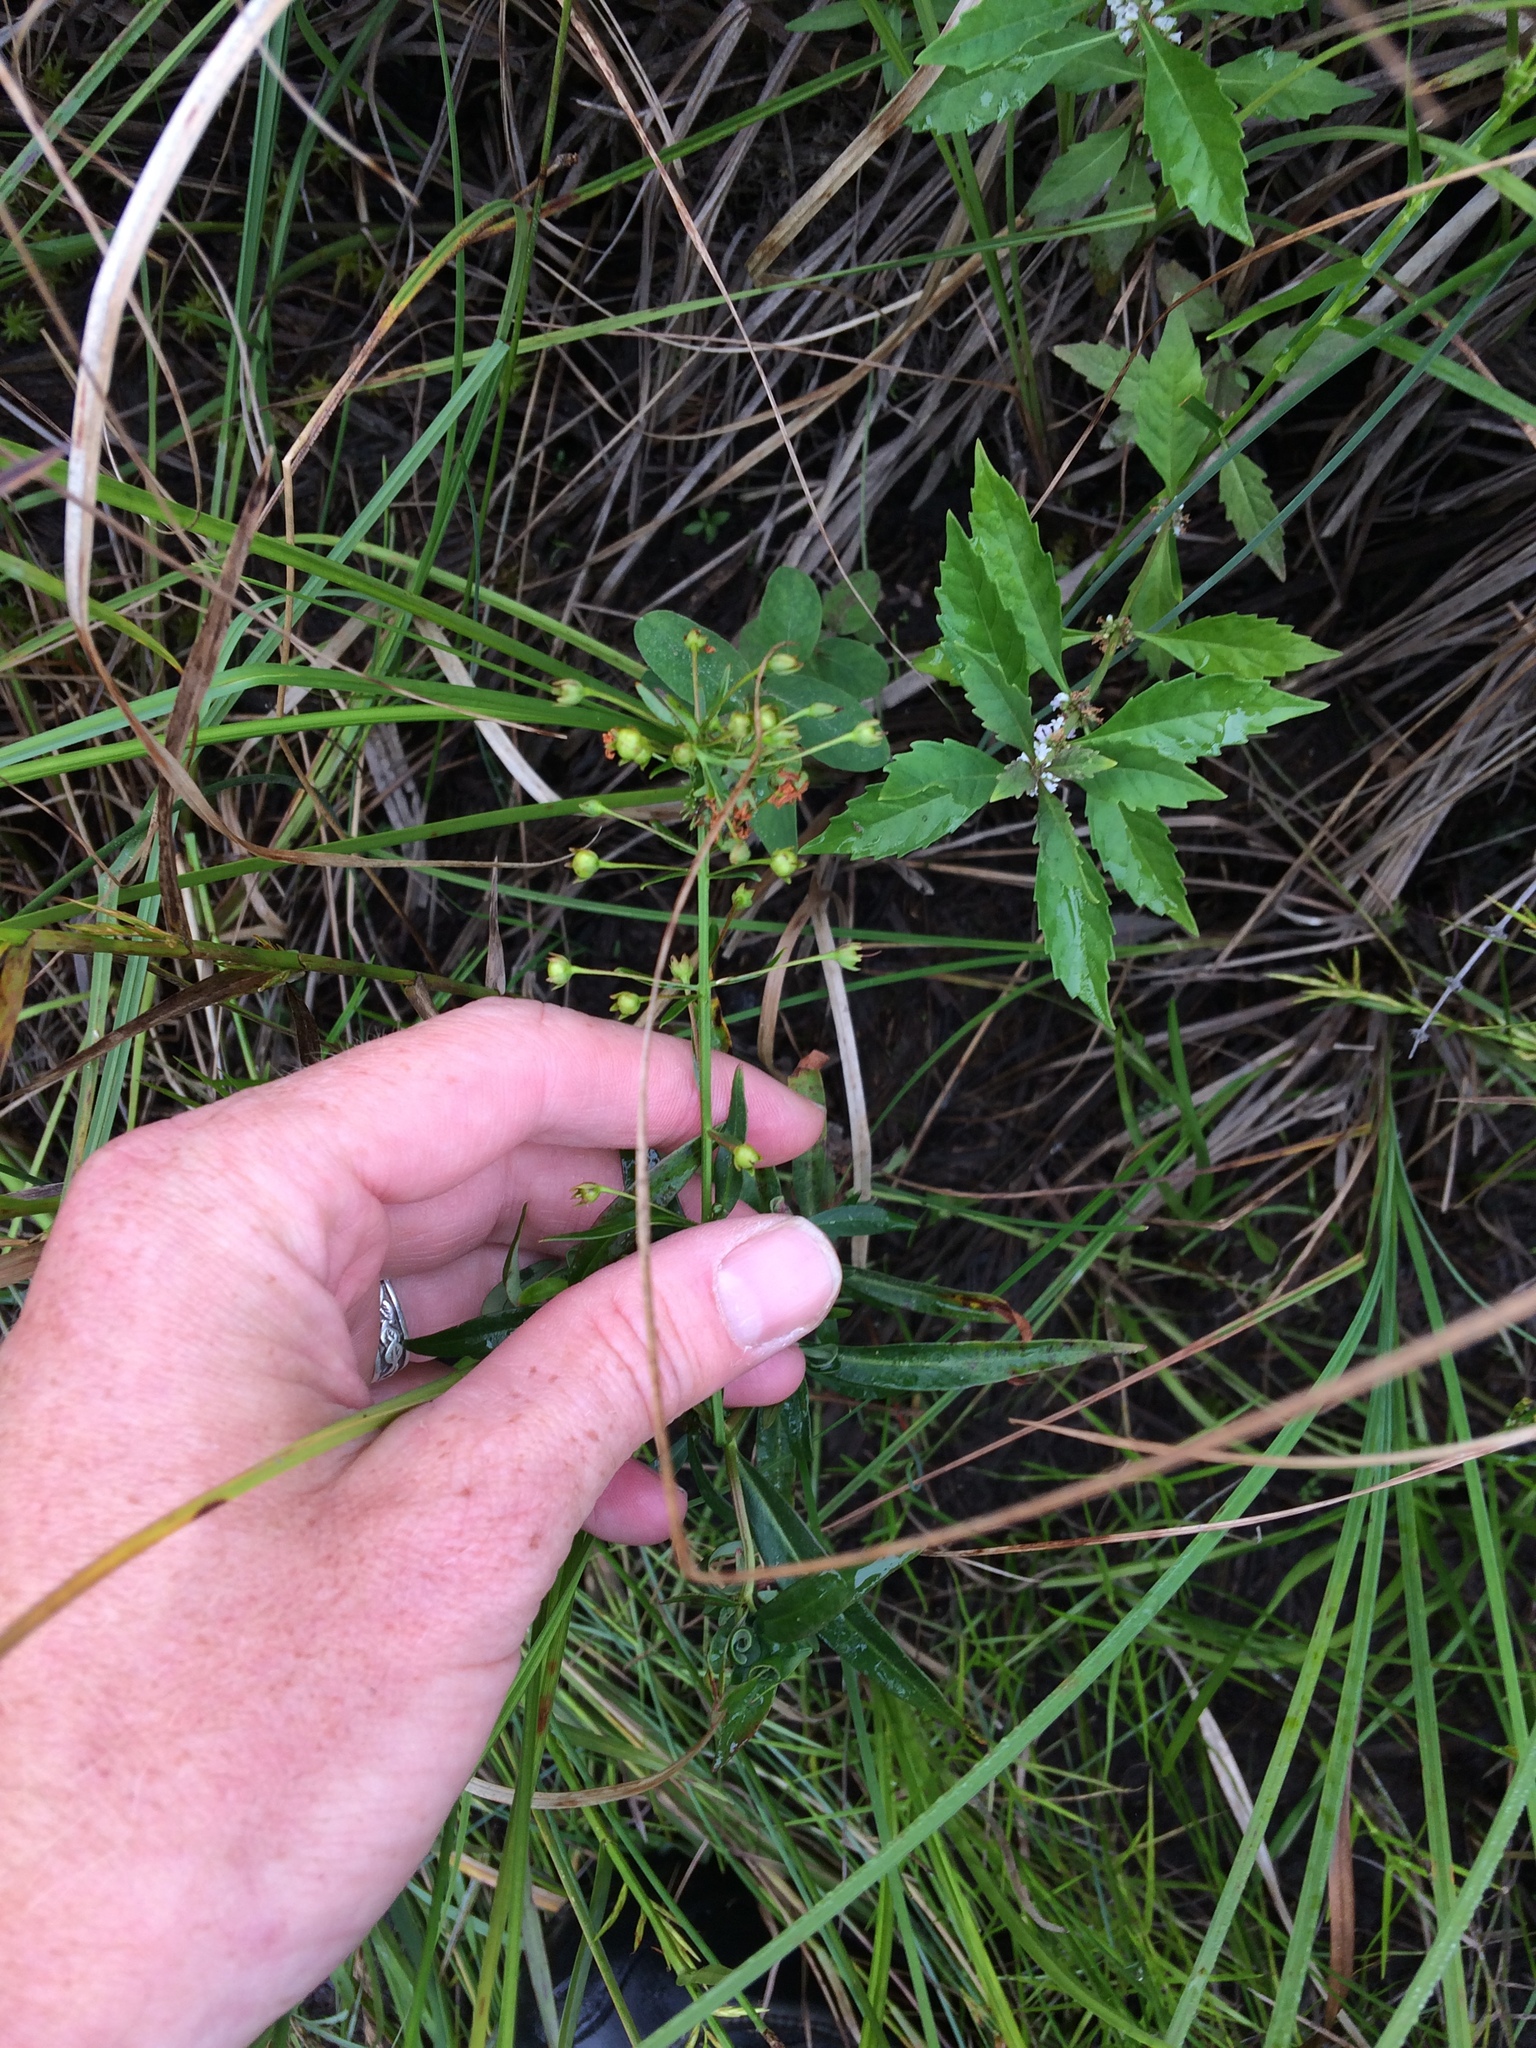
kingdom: Plantae
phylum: Tracheophyta
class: Magnoliopsida
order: Ericales
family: Primulaceae
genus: Lysimachia
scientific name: Lysimachia terrestris
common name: Lake loosestrife
